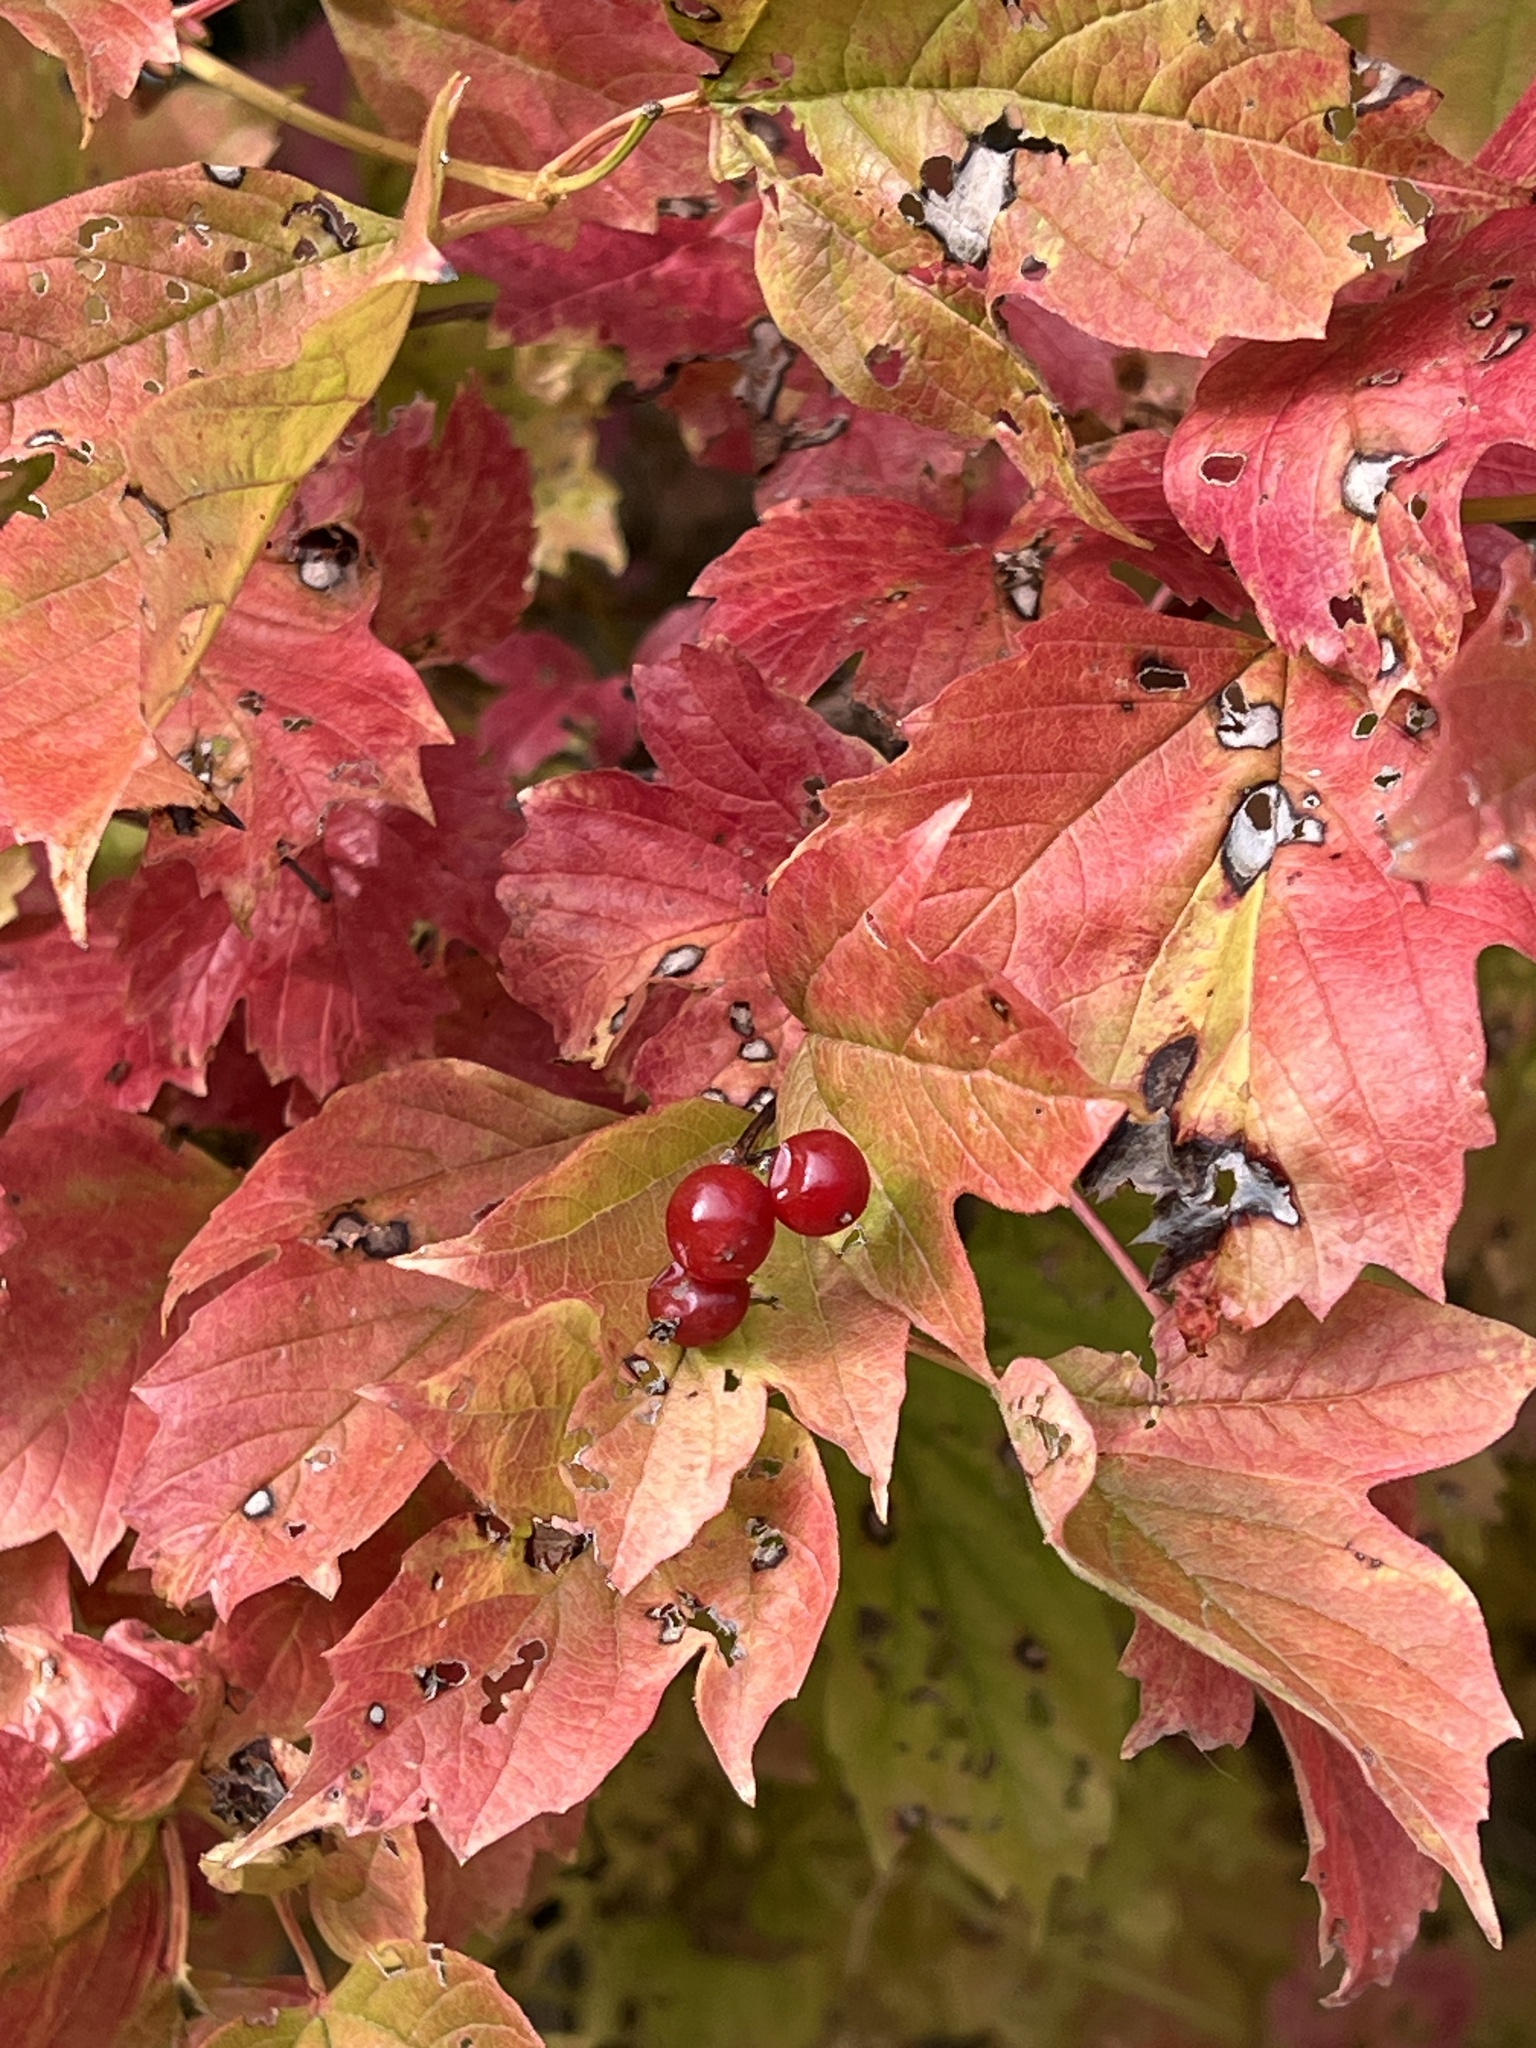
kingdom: Plantae
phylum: Tracheophyta
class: Magnoliopsida
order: Dipsacales
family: Viburnaceae
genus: Viburnum
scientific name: Viburnum opulus
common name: Guelder-rose
